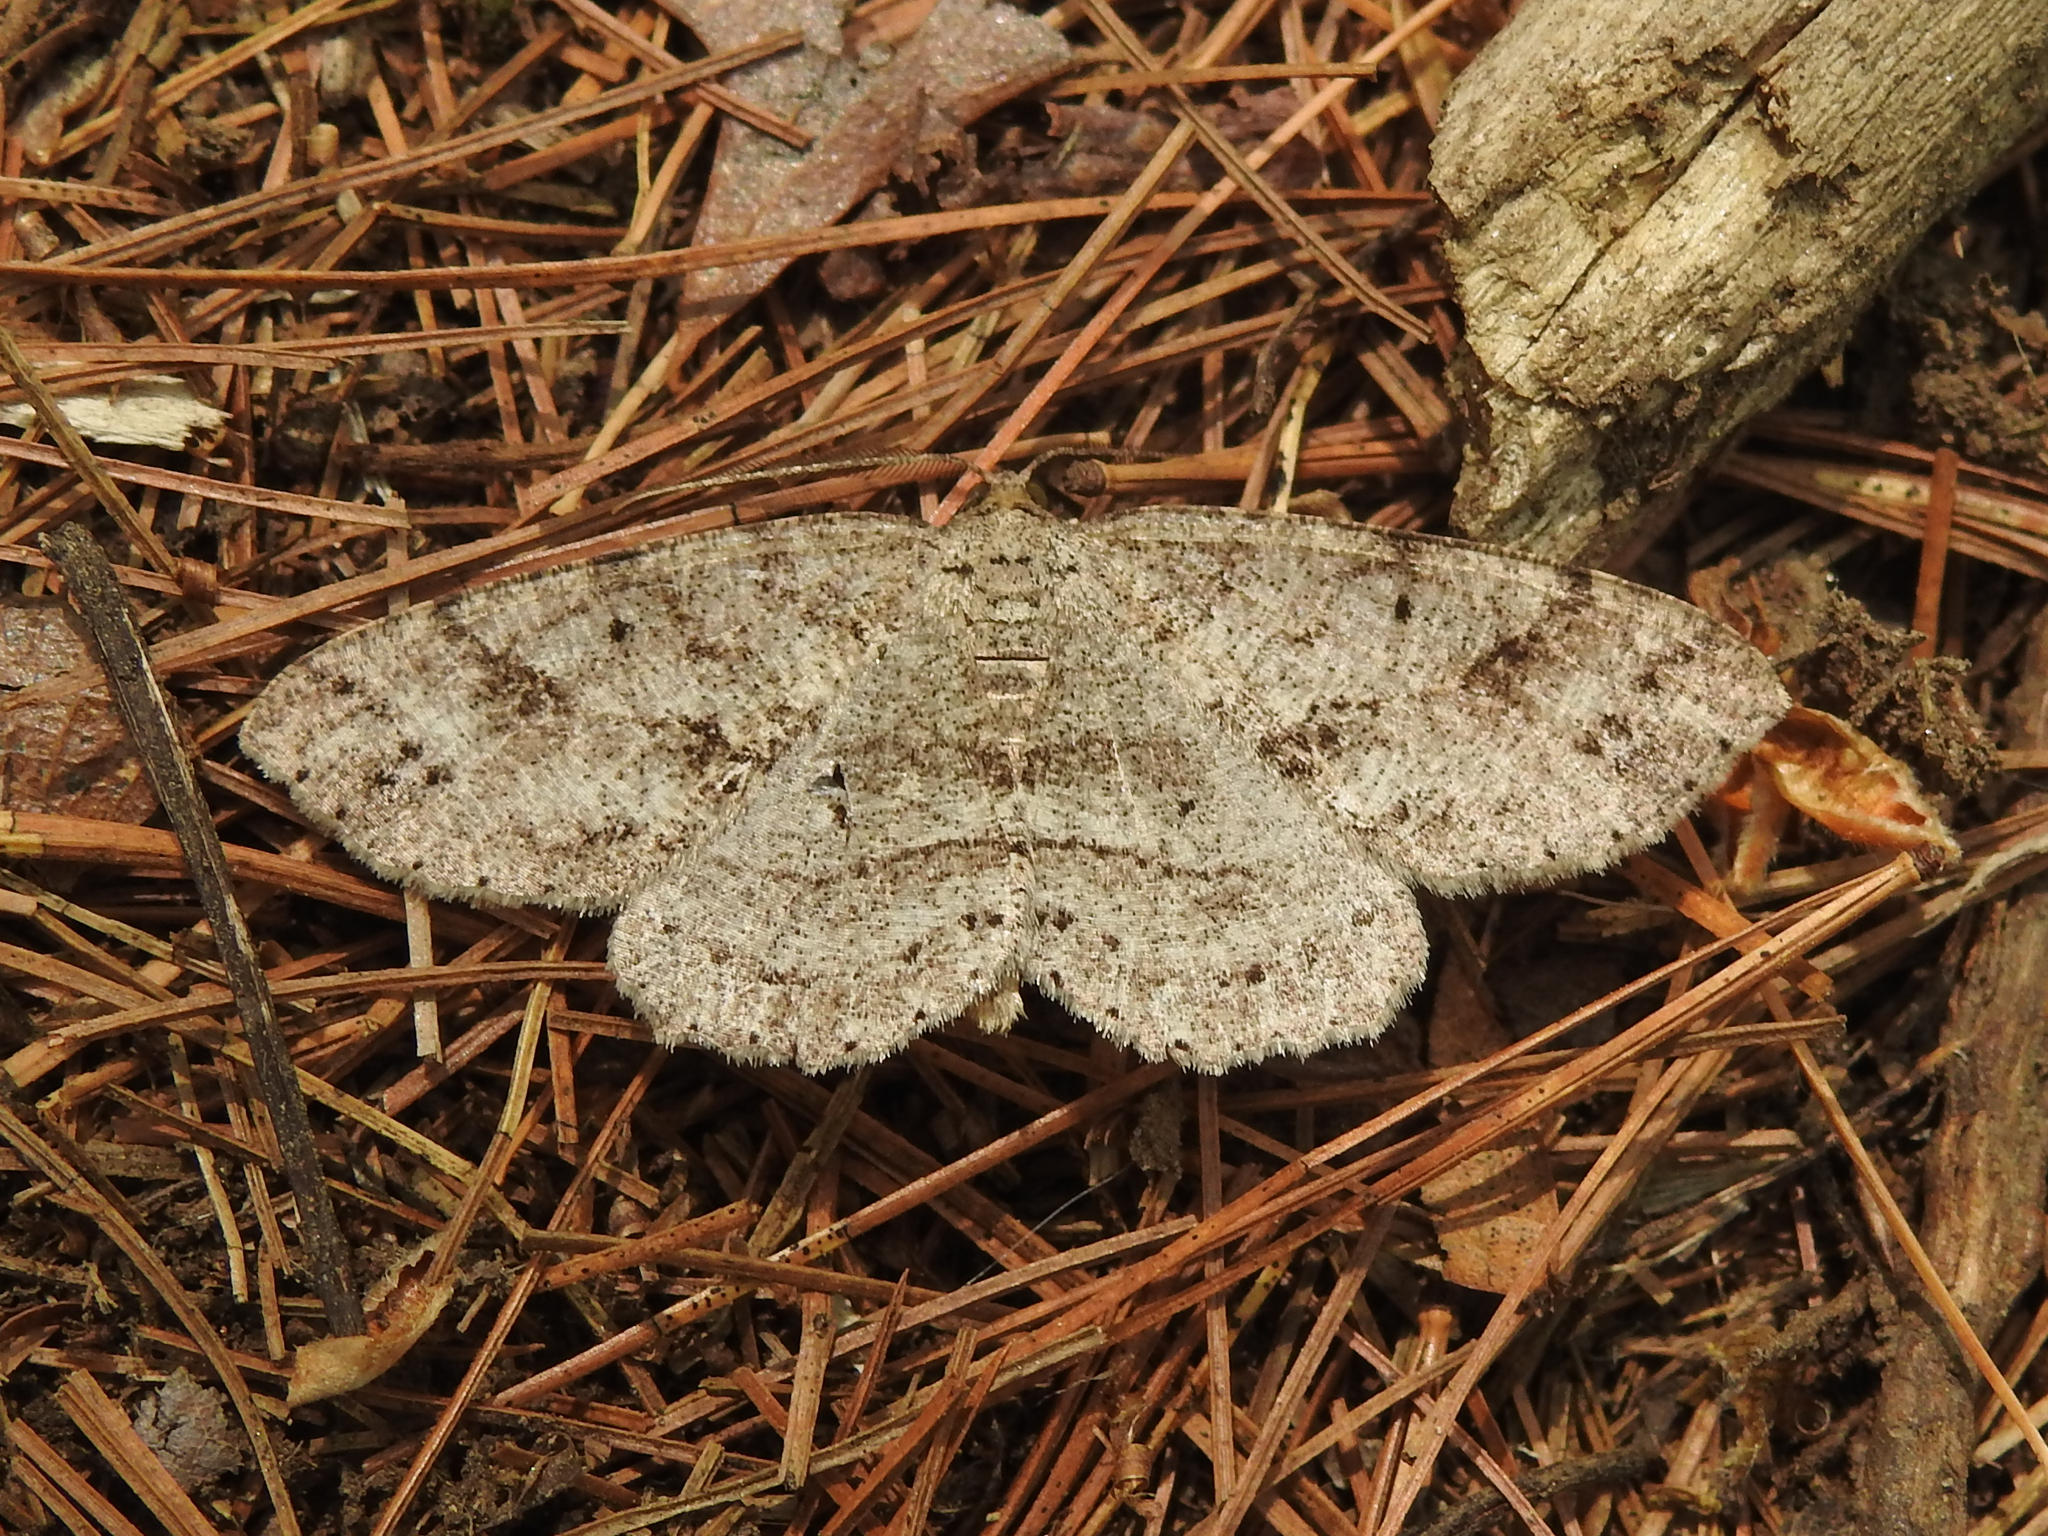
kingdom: Animalia
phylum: Arthropoda
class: Insecta
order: Lepidoptera
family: Geometridae
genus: Melanolophia
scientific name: Melanolophia canadaria
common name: Canadian melanolophia
